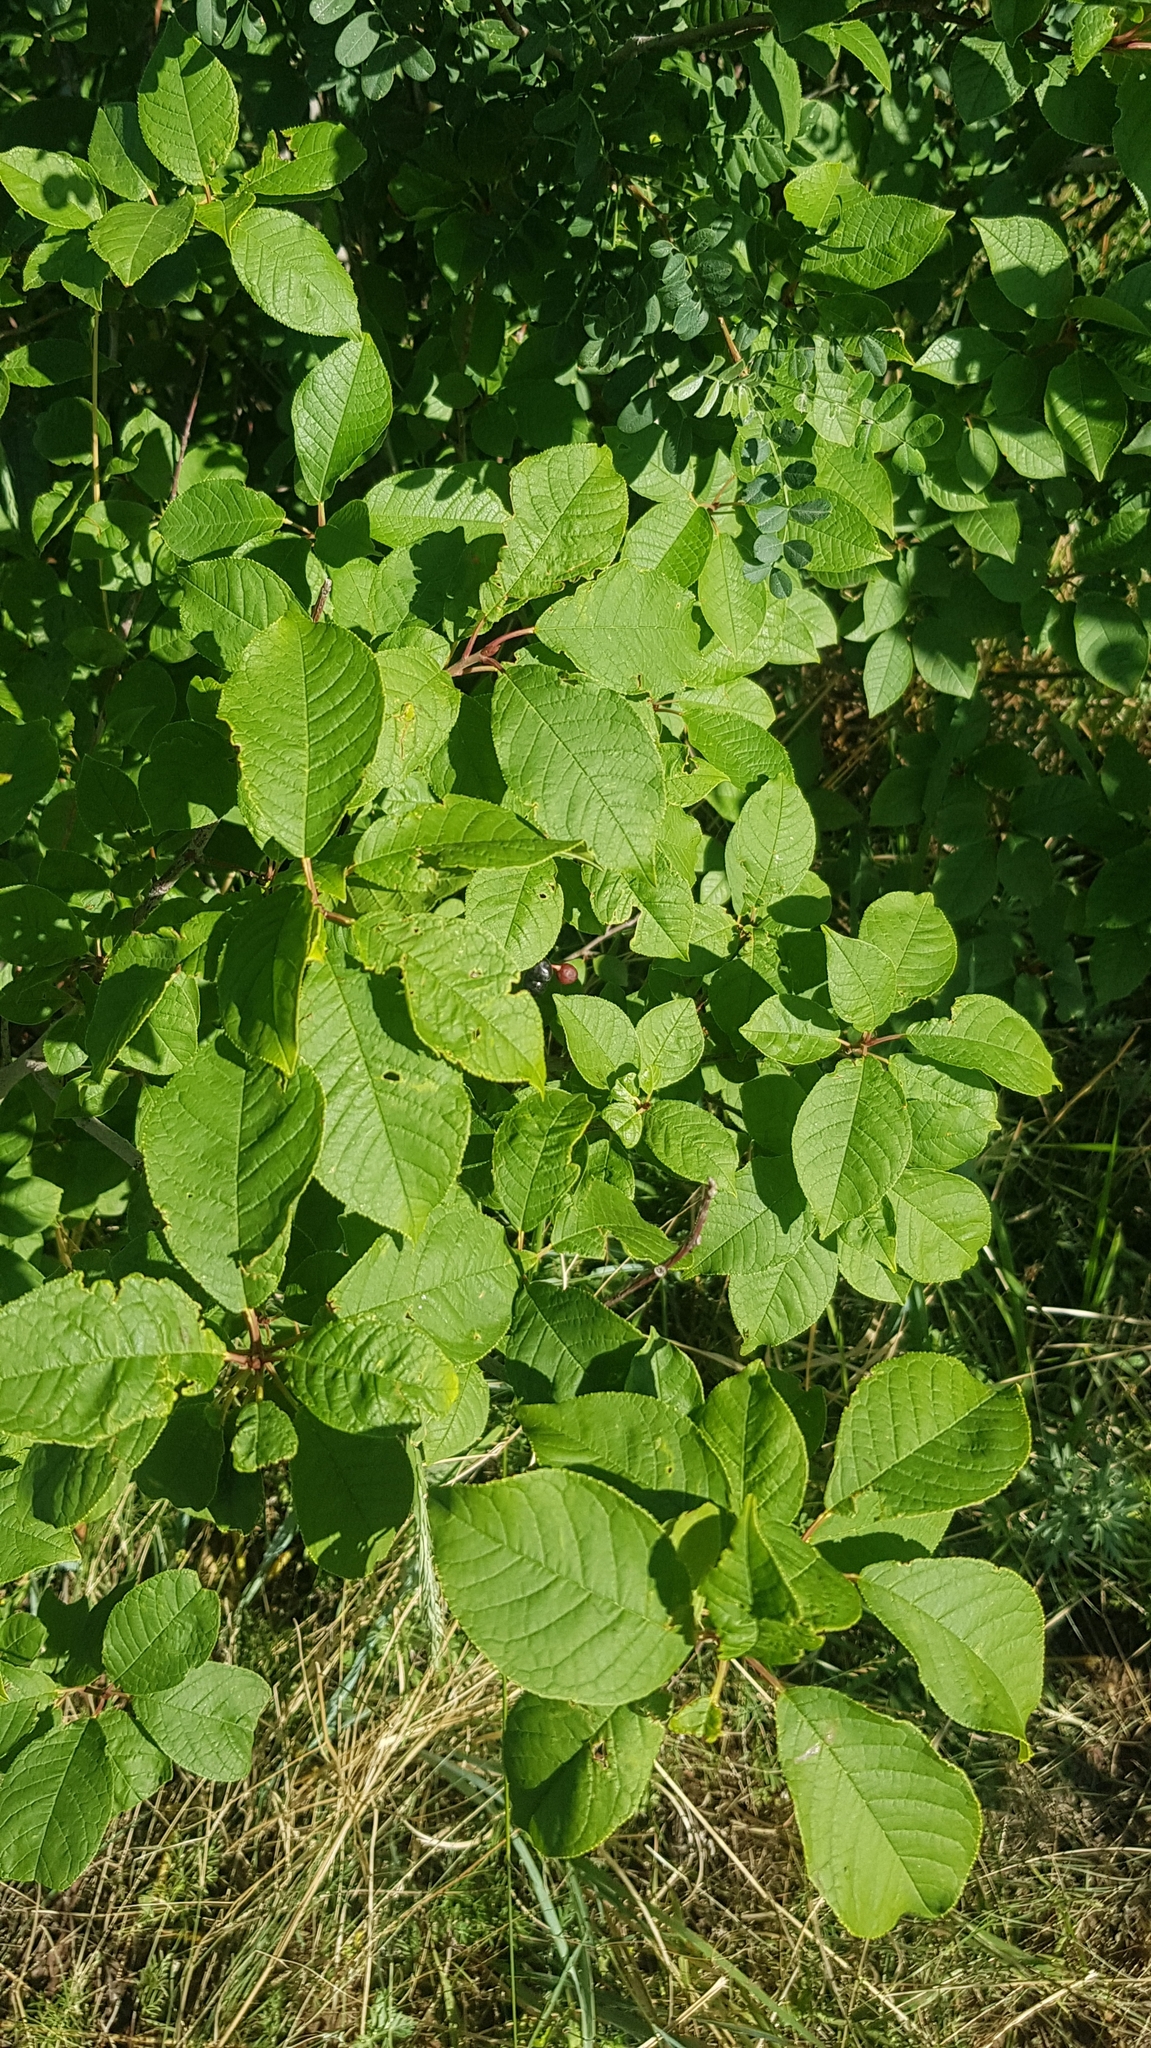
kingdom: Plantae
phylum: Tracheophyta
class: Magnoliopsida
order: Rosales
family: Rosaceae
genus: Prunus
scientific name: Prunus padus
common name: Bird cherry
